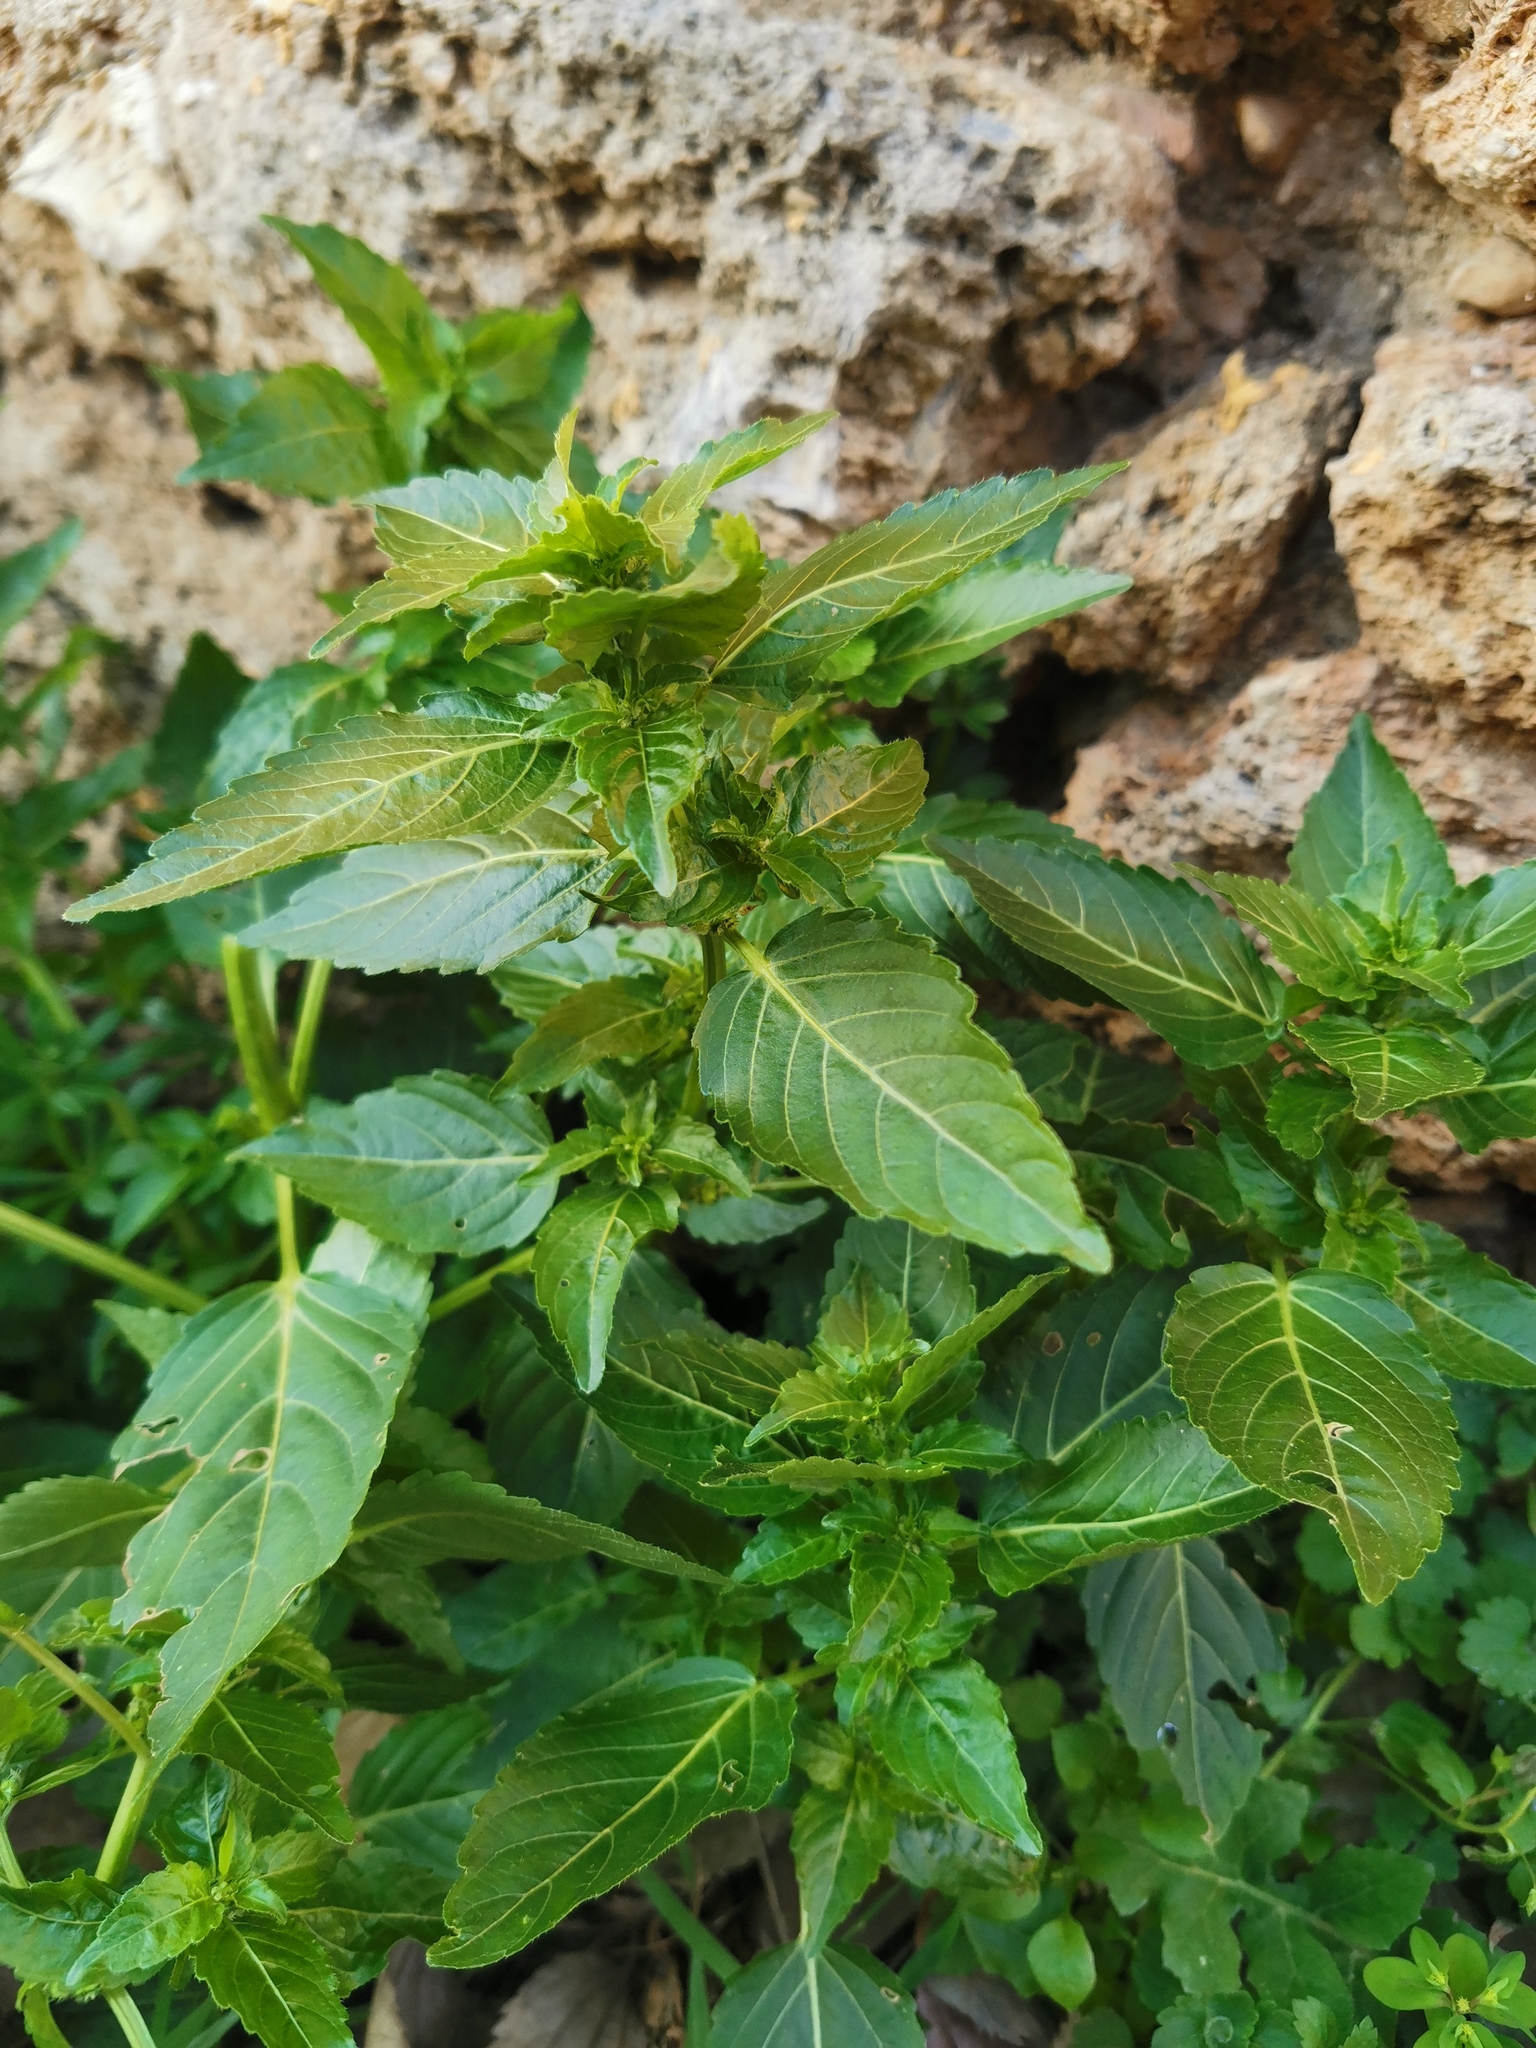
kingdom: Plantae
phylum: Tracheophyta
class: Magnoliopsida
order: Malpighiales
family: Euphorbiaceae
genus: Mercurialis
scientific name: Mercurialis annua
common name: Annual mercury
